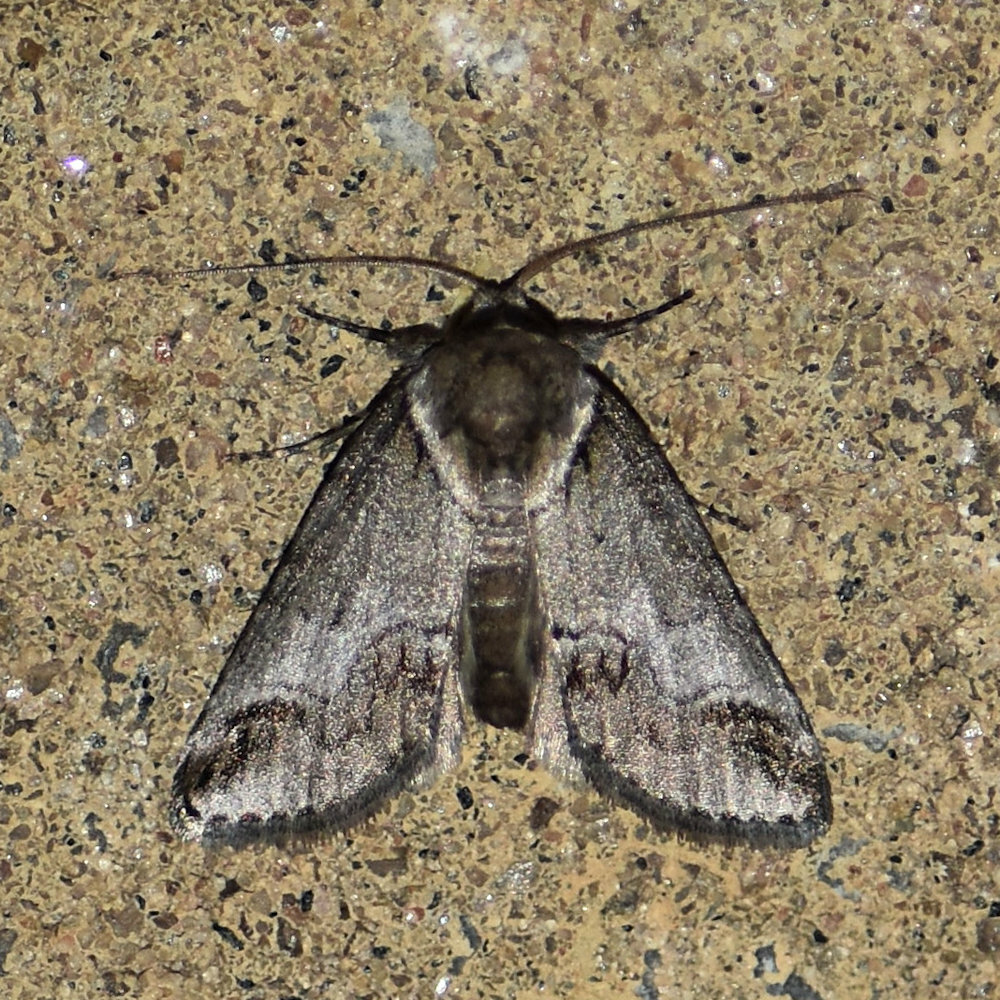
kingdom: Animalia
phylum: Arthropoda
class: Insecta
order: Lepidoptera
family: Nolidae
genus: Baileya
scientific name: Baileya australis
